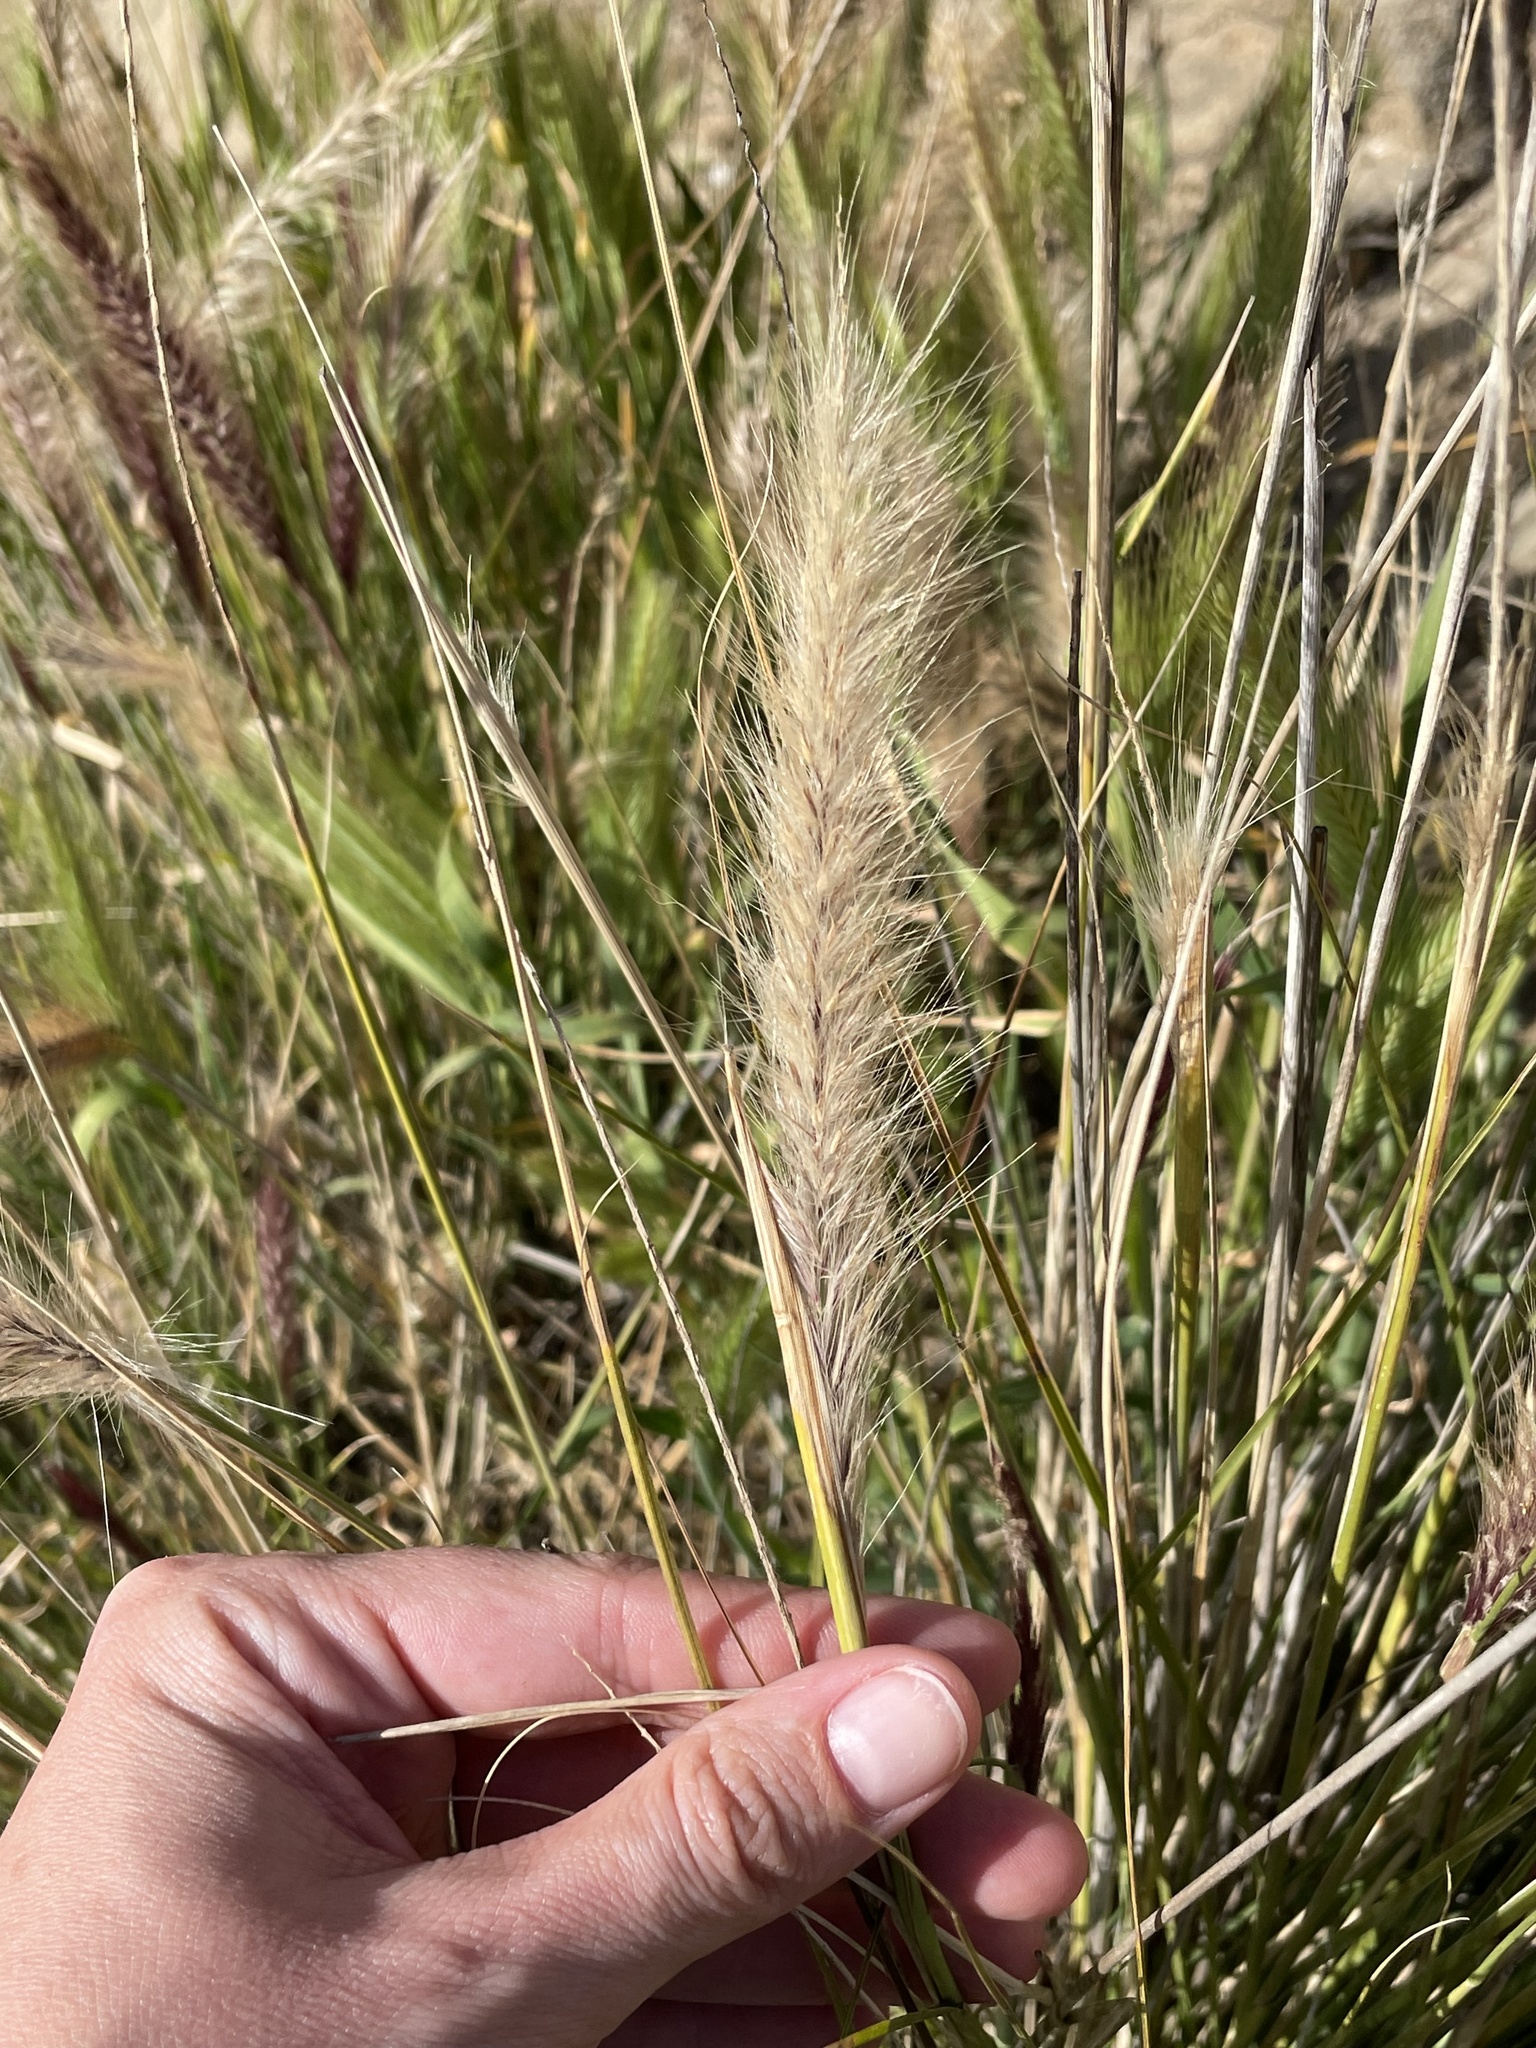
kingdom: Plantae
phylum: Tracheophyta
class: Liliopsida
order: Poales
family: Poaceae
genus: Cenchrus
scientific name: Cenchrus setaceus
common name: Crimson fountaingrass
